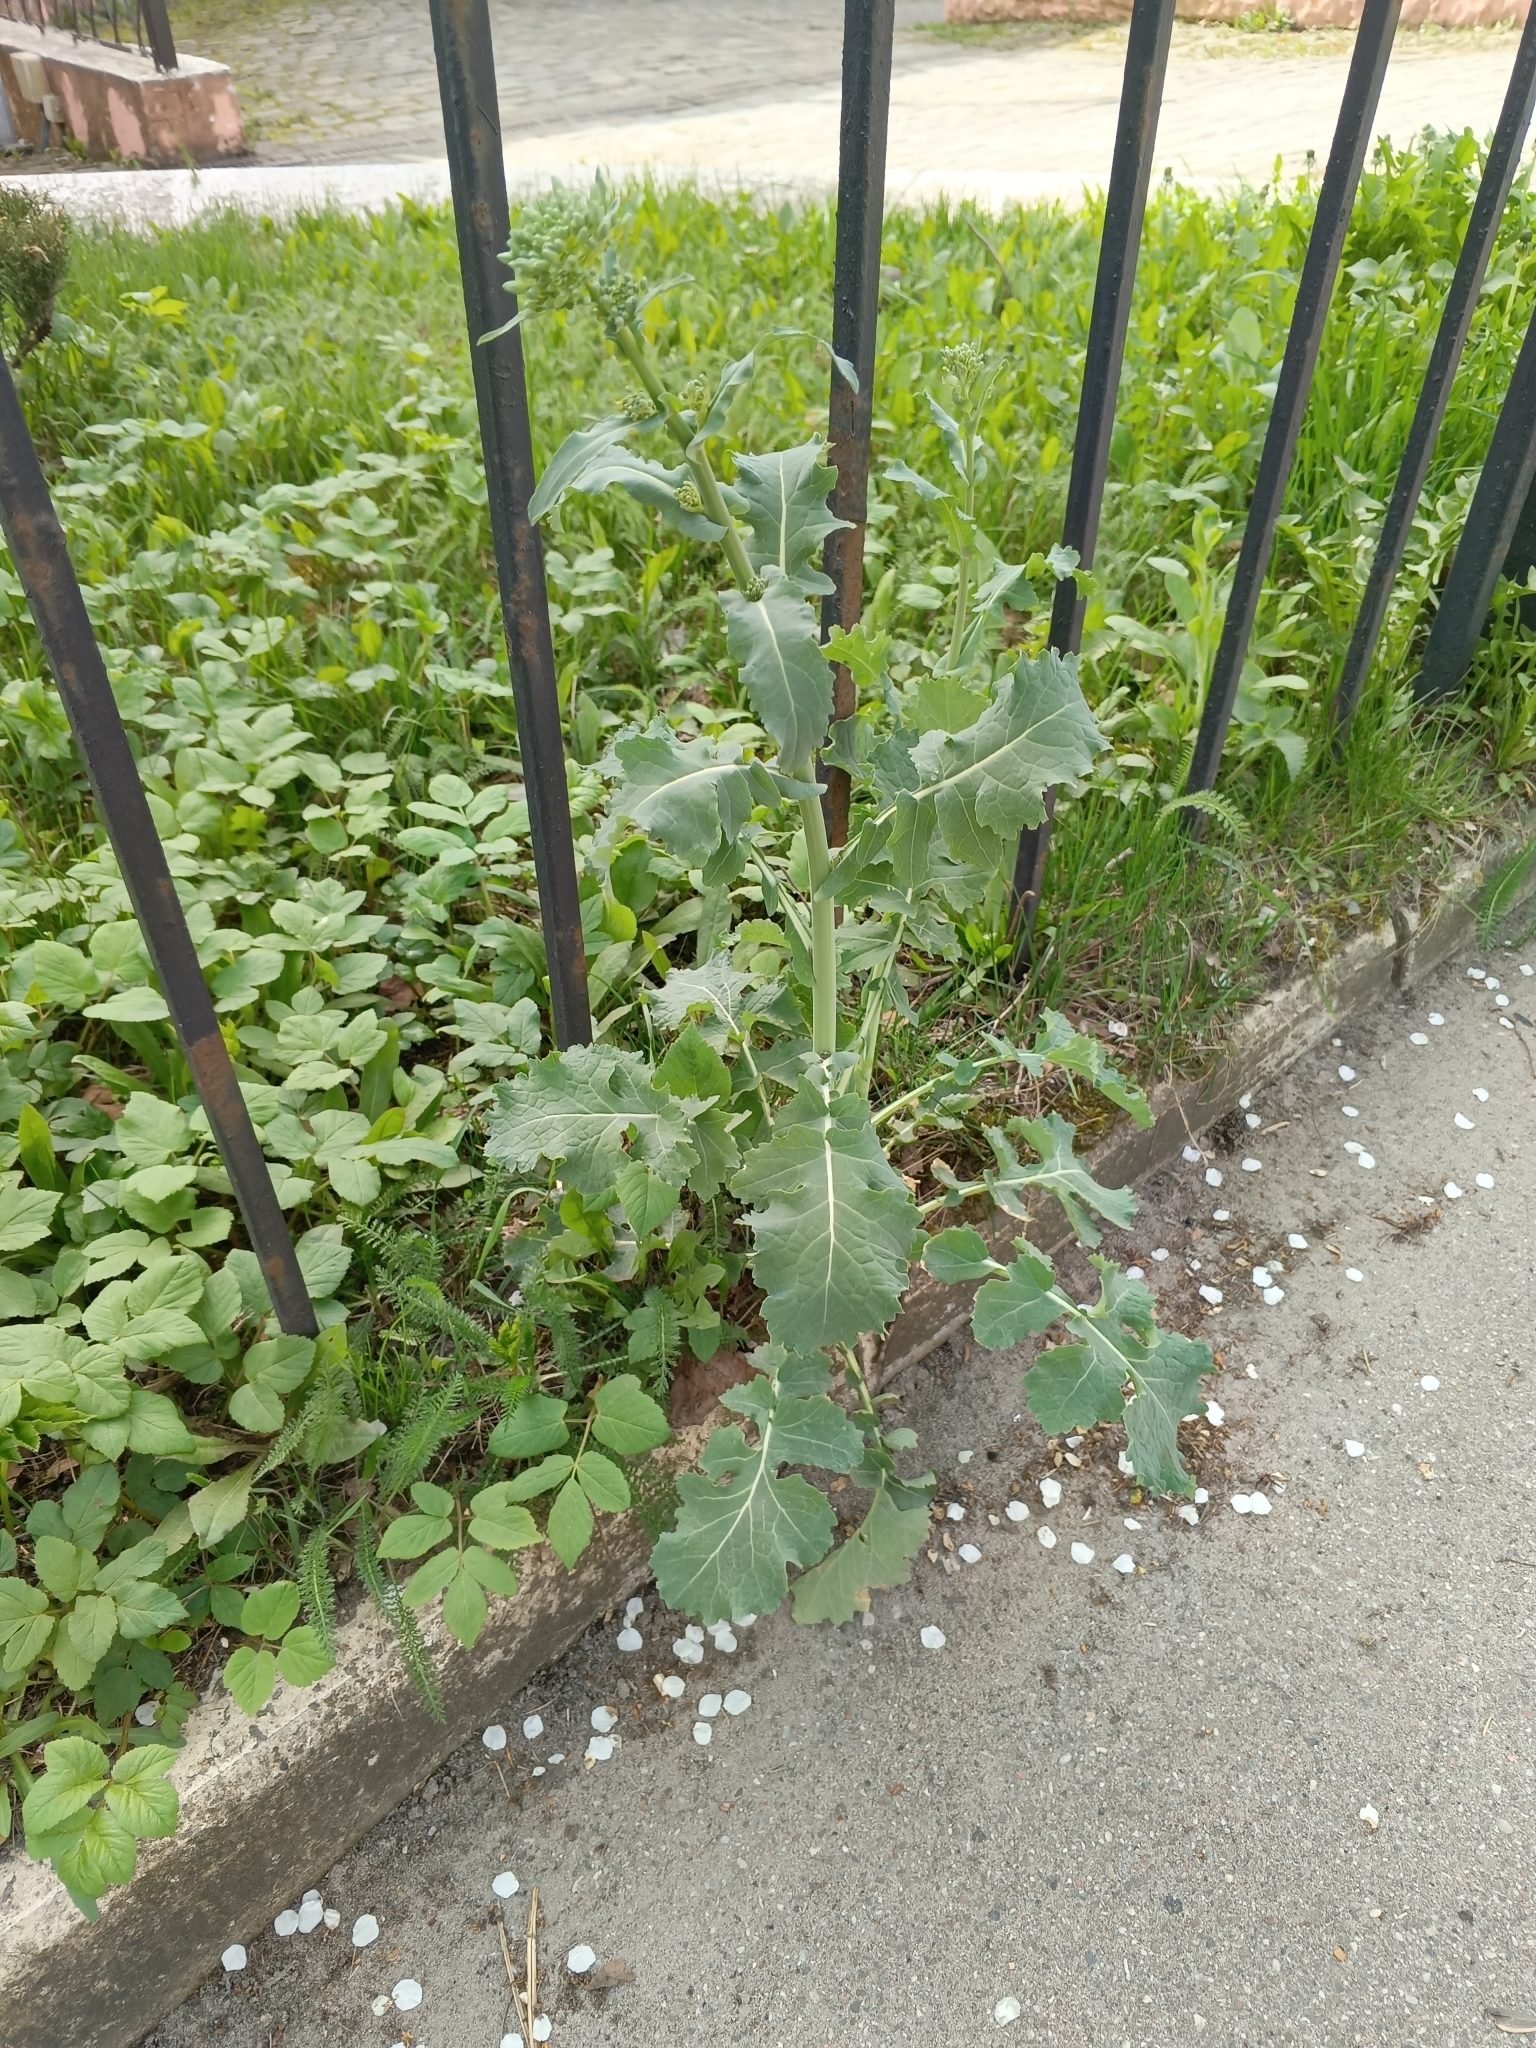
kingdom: Plantae
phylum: Tracheophyta
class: Magnoliopsida
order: Brassicales
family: Brassicaceae
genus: Brassica
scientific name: Brassica napus
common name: Rape
